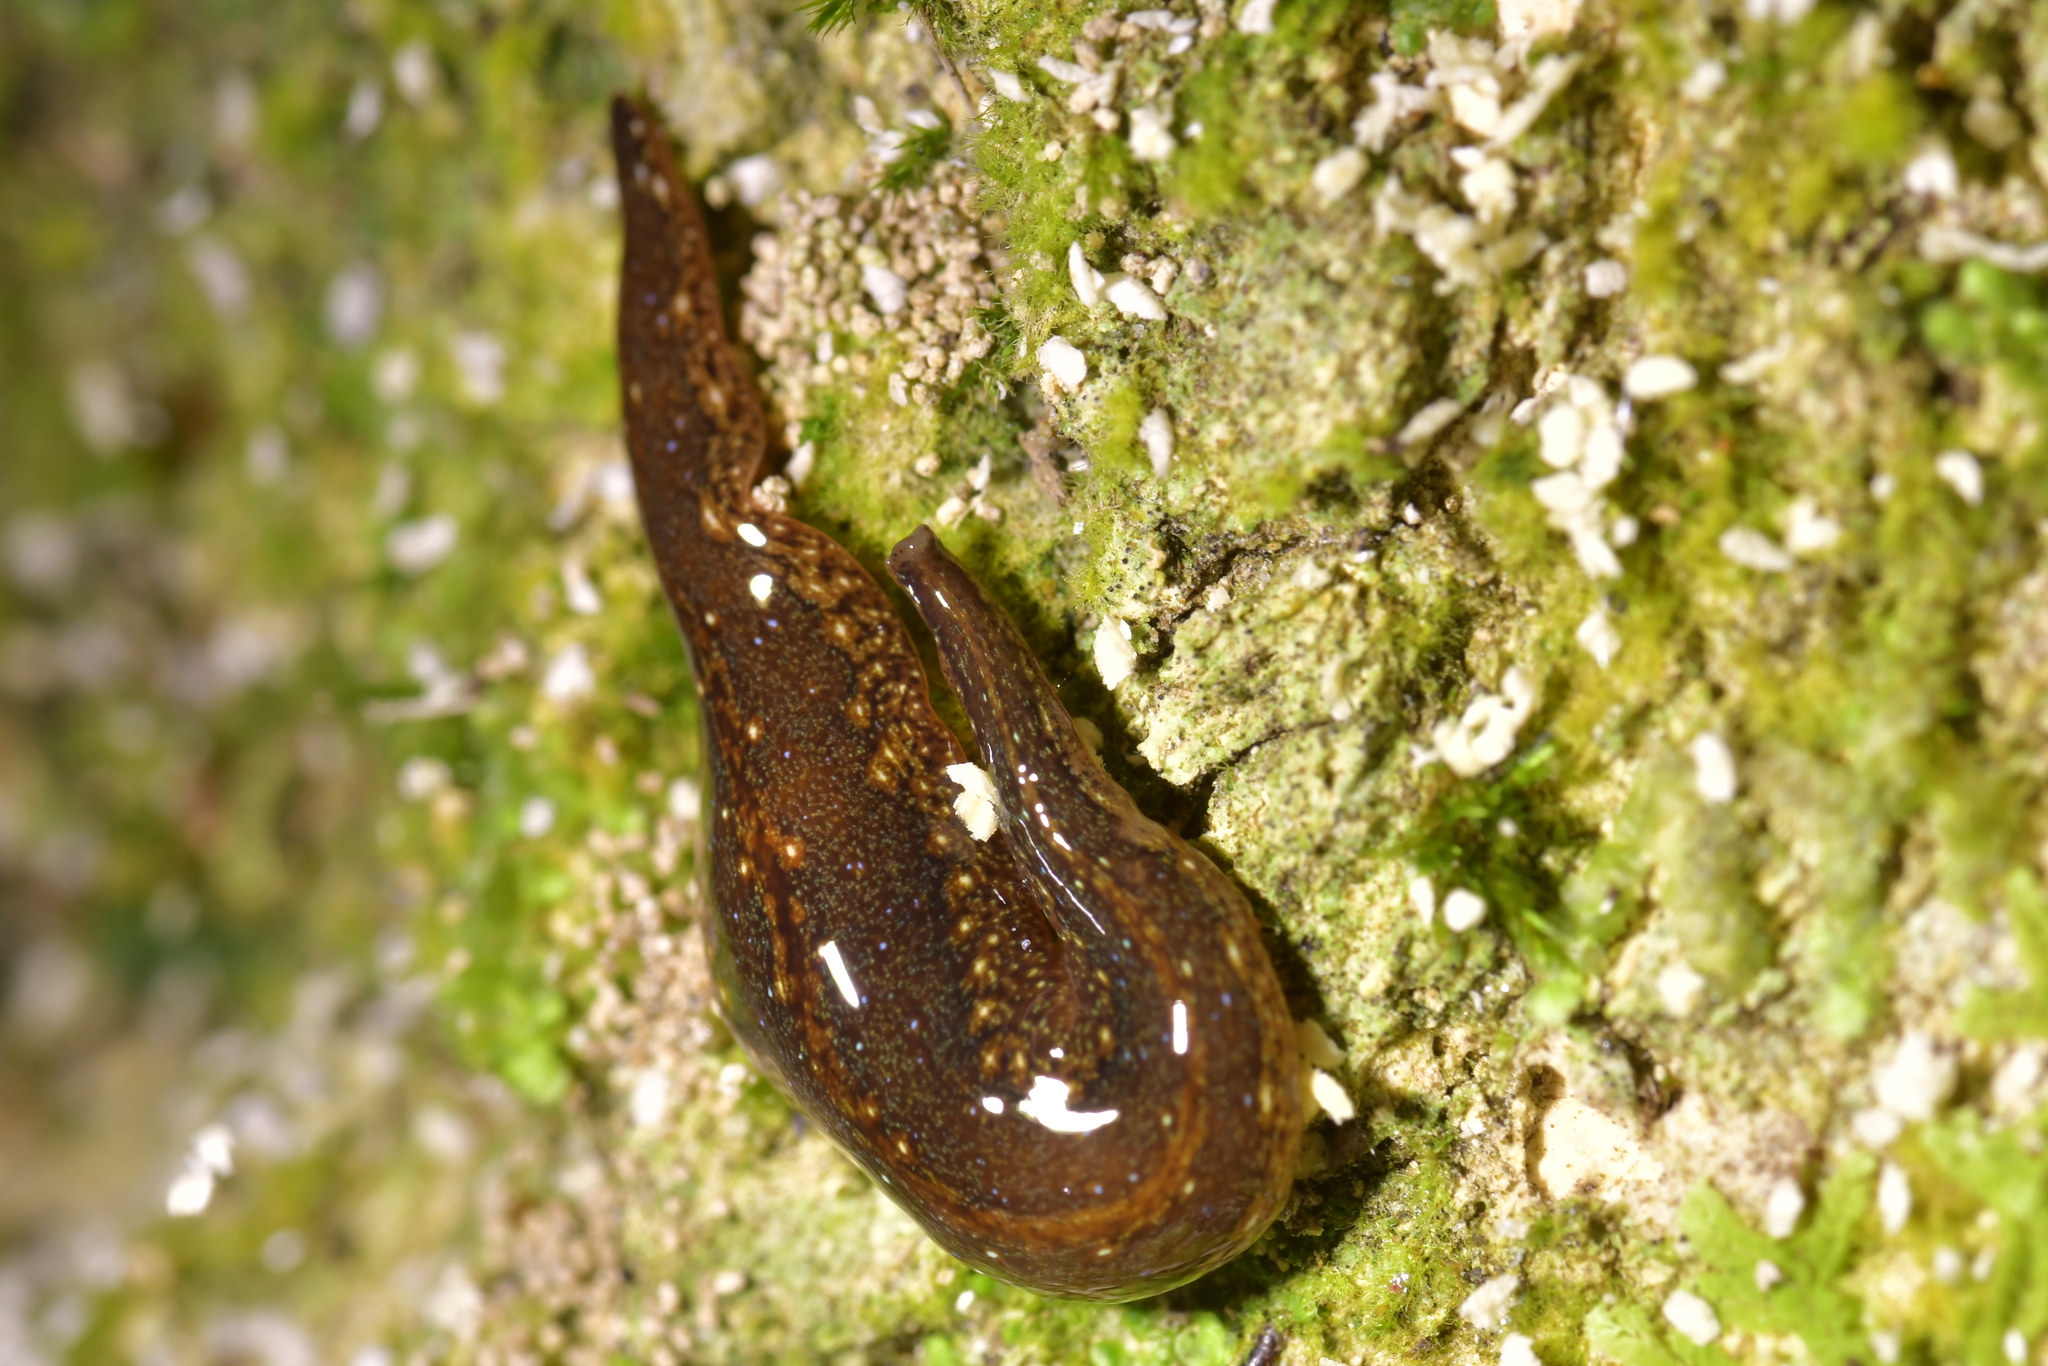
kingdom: Animalia
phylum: Platyhelminthes
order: Tricladida
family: Geoplanidae
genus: Newzealandia
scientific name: Newzealandia graffii
